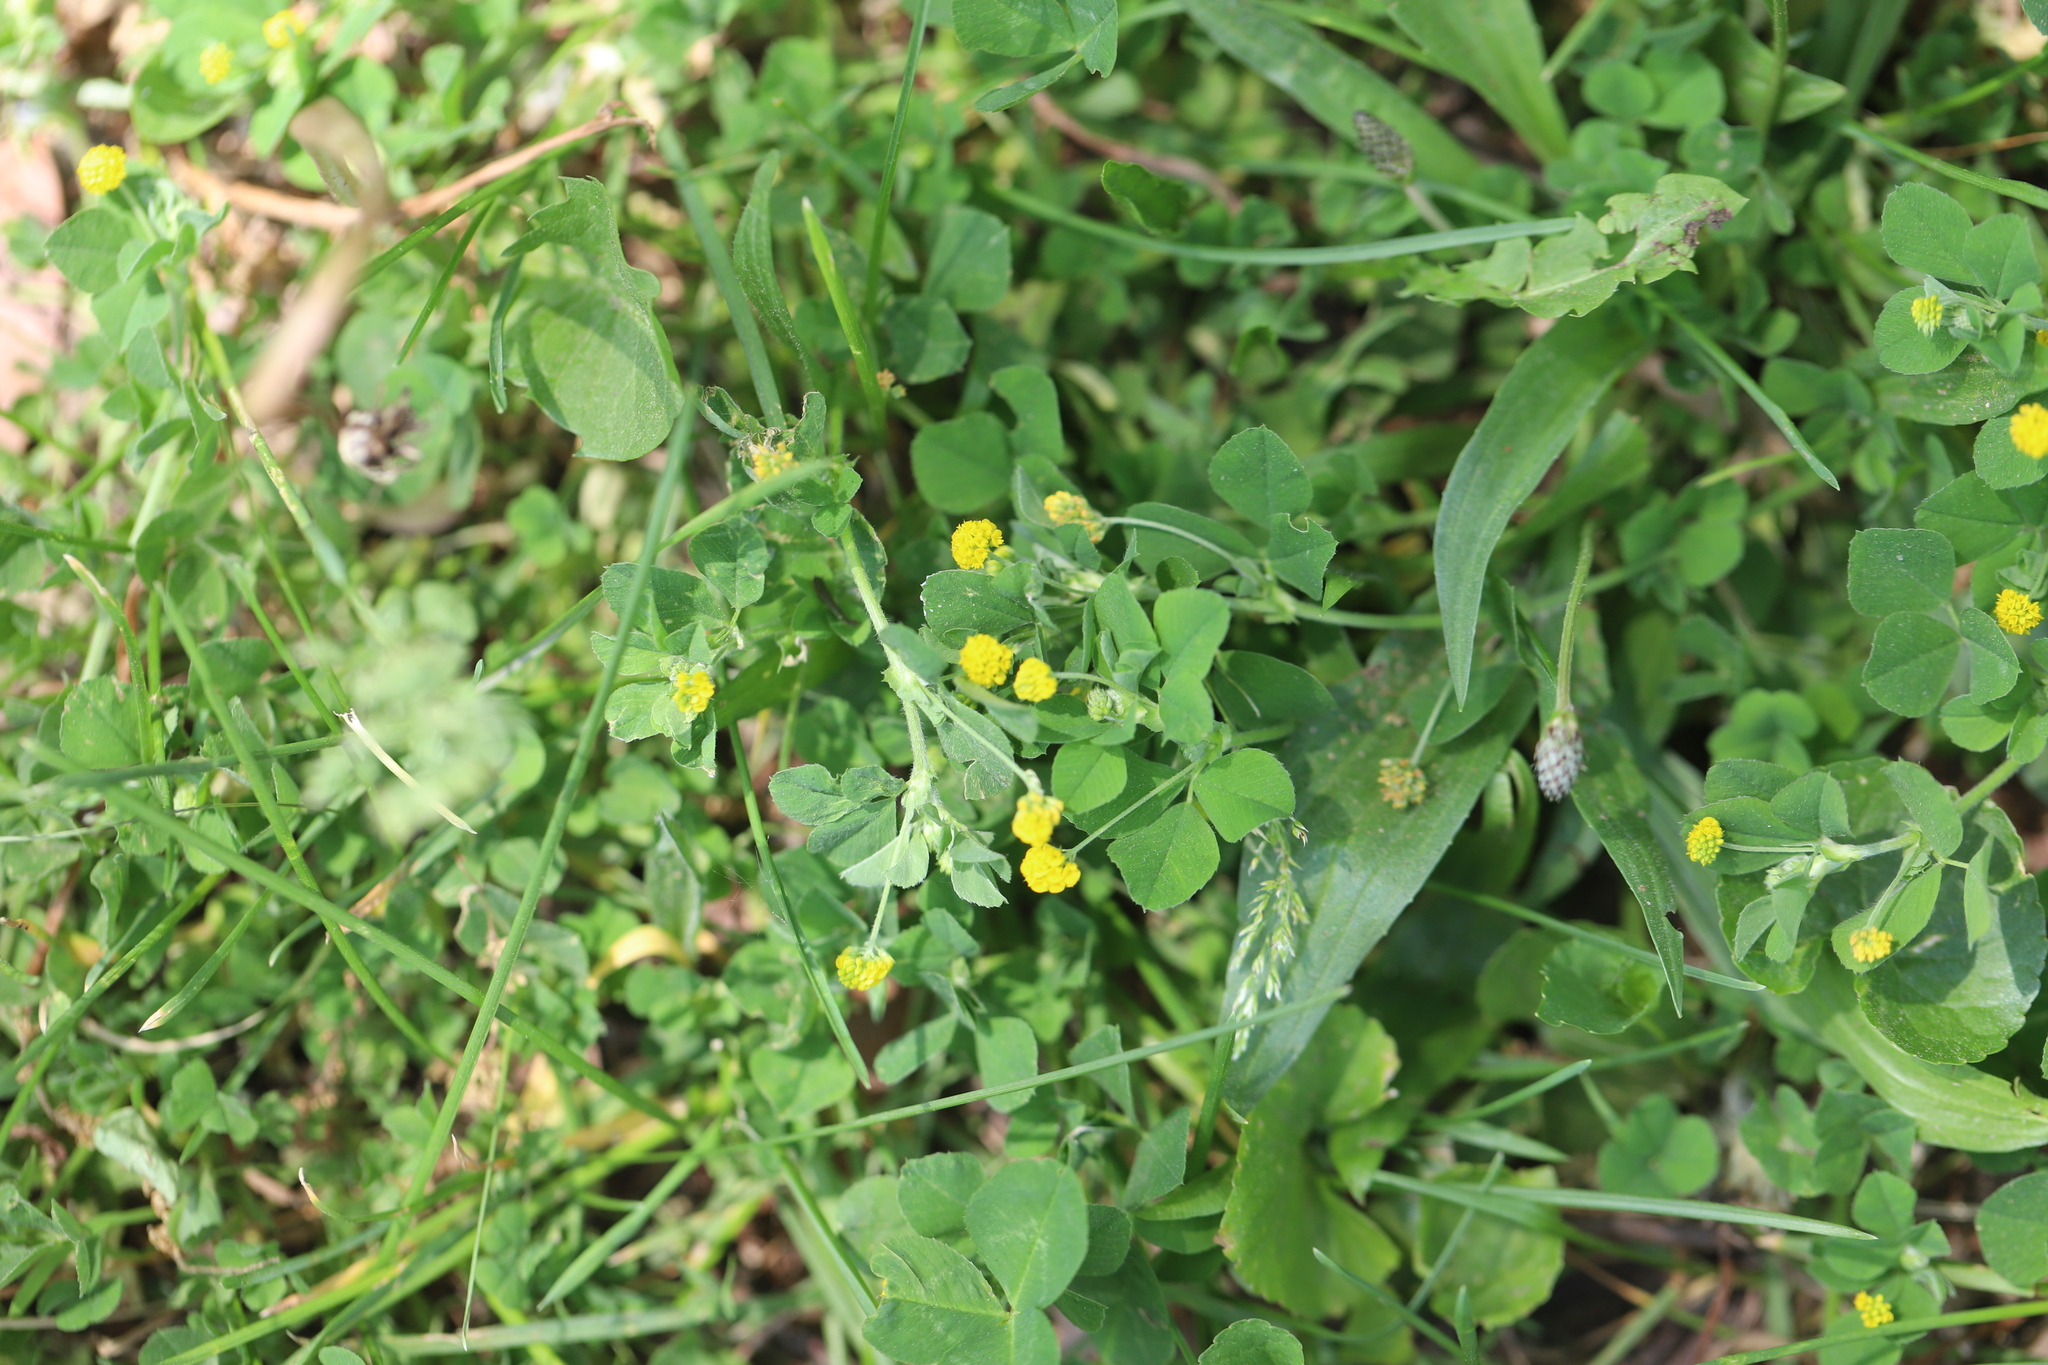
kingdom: Plantae
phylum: Tracheophyta
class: Magnoliopsida
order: Fabales
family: Fabaceae
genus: Medicago
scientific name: Medicago lupulina
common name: Black medick
